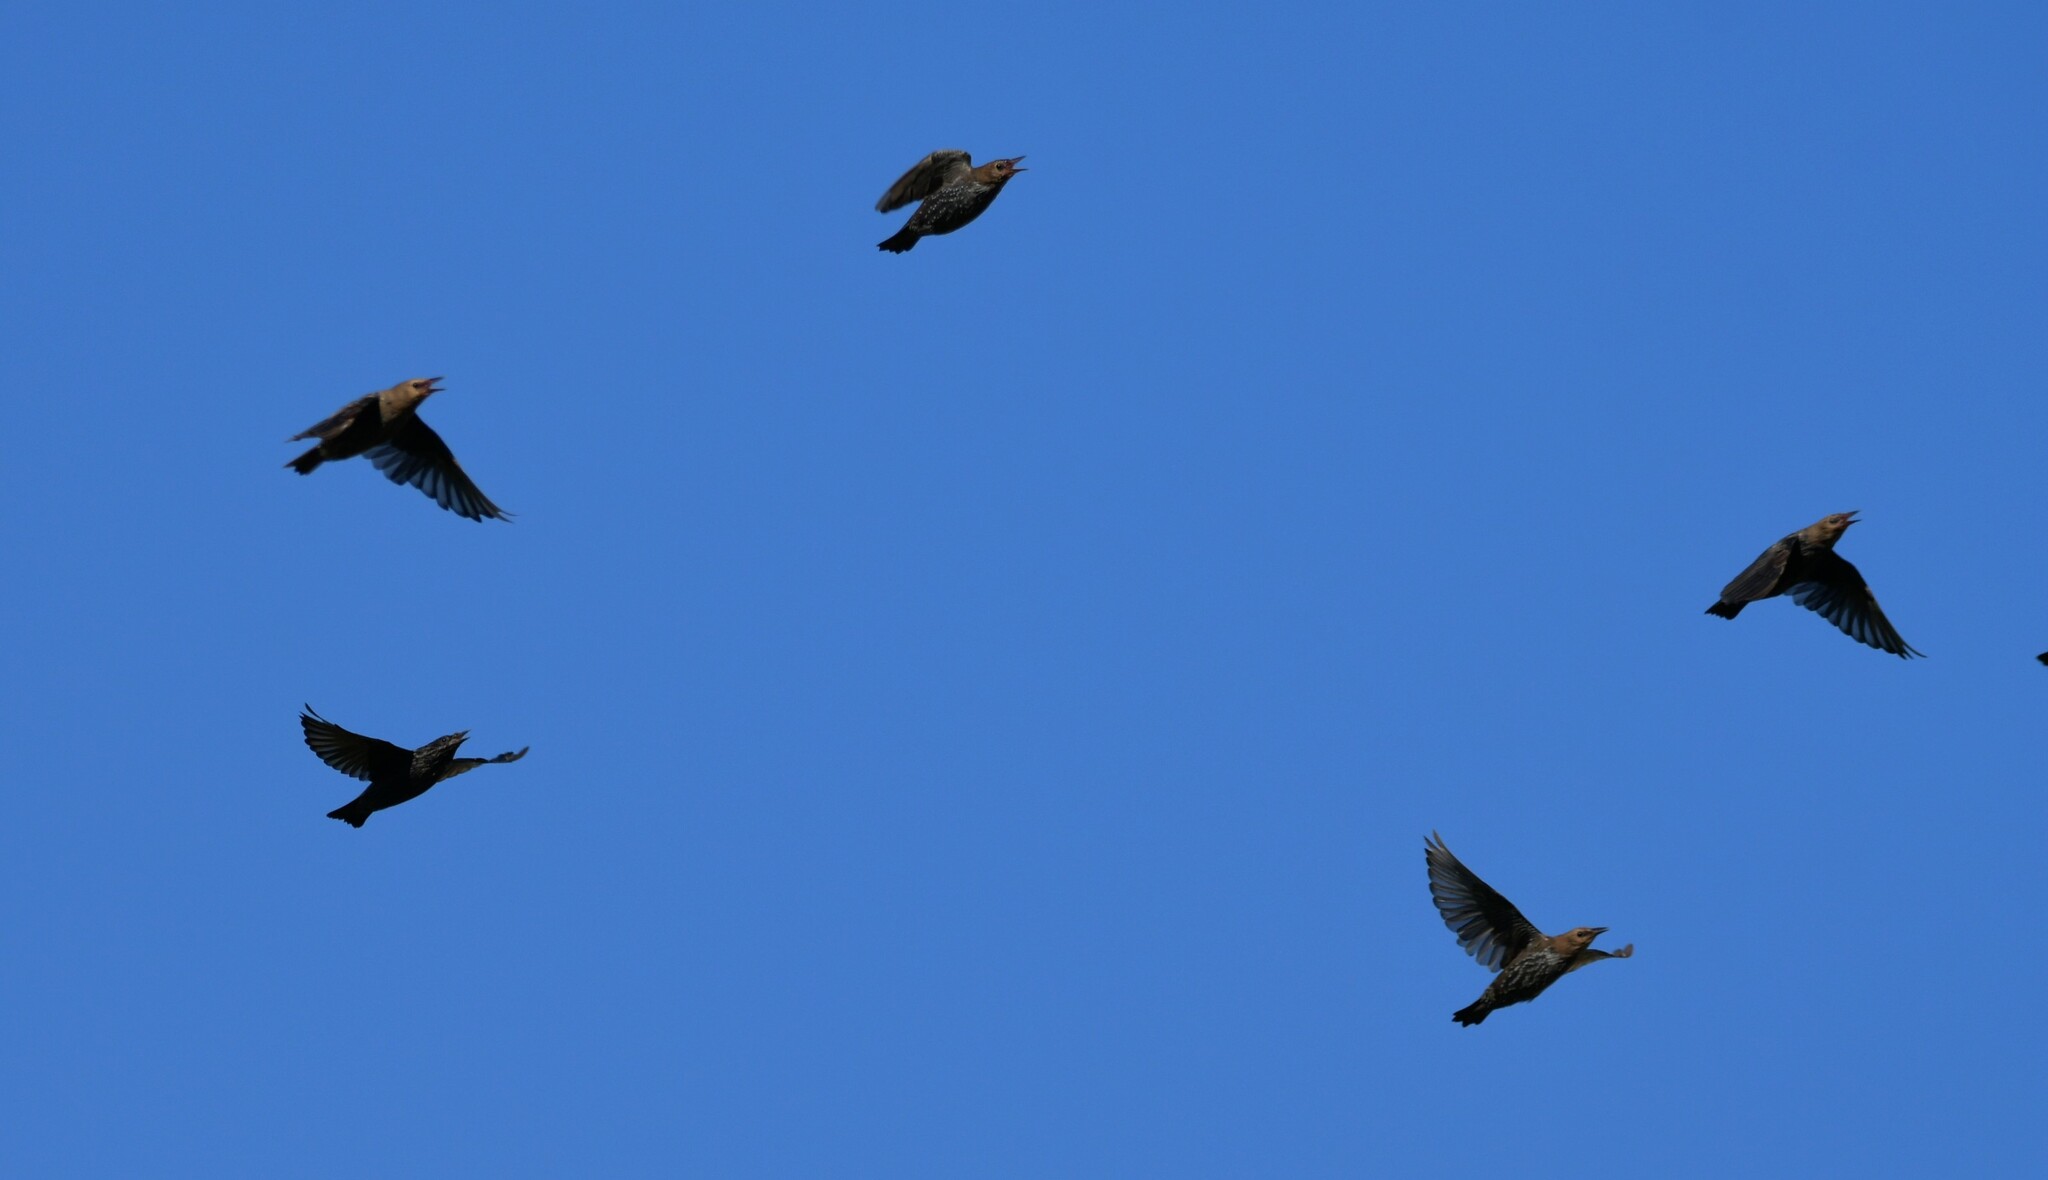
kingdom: Animalia
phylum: Chordata
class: Aves
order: Passeriformes
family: Sturnidae
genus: Sturnus
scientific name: Sturnus unicolor
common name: Spotless starling
